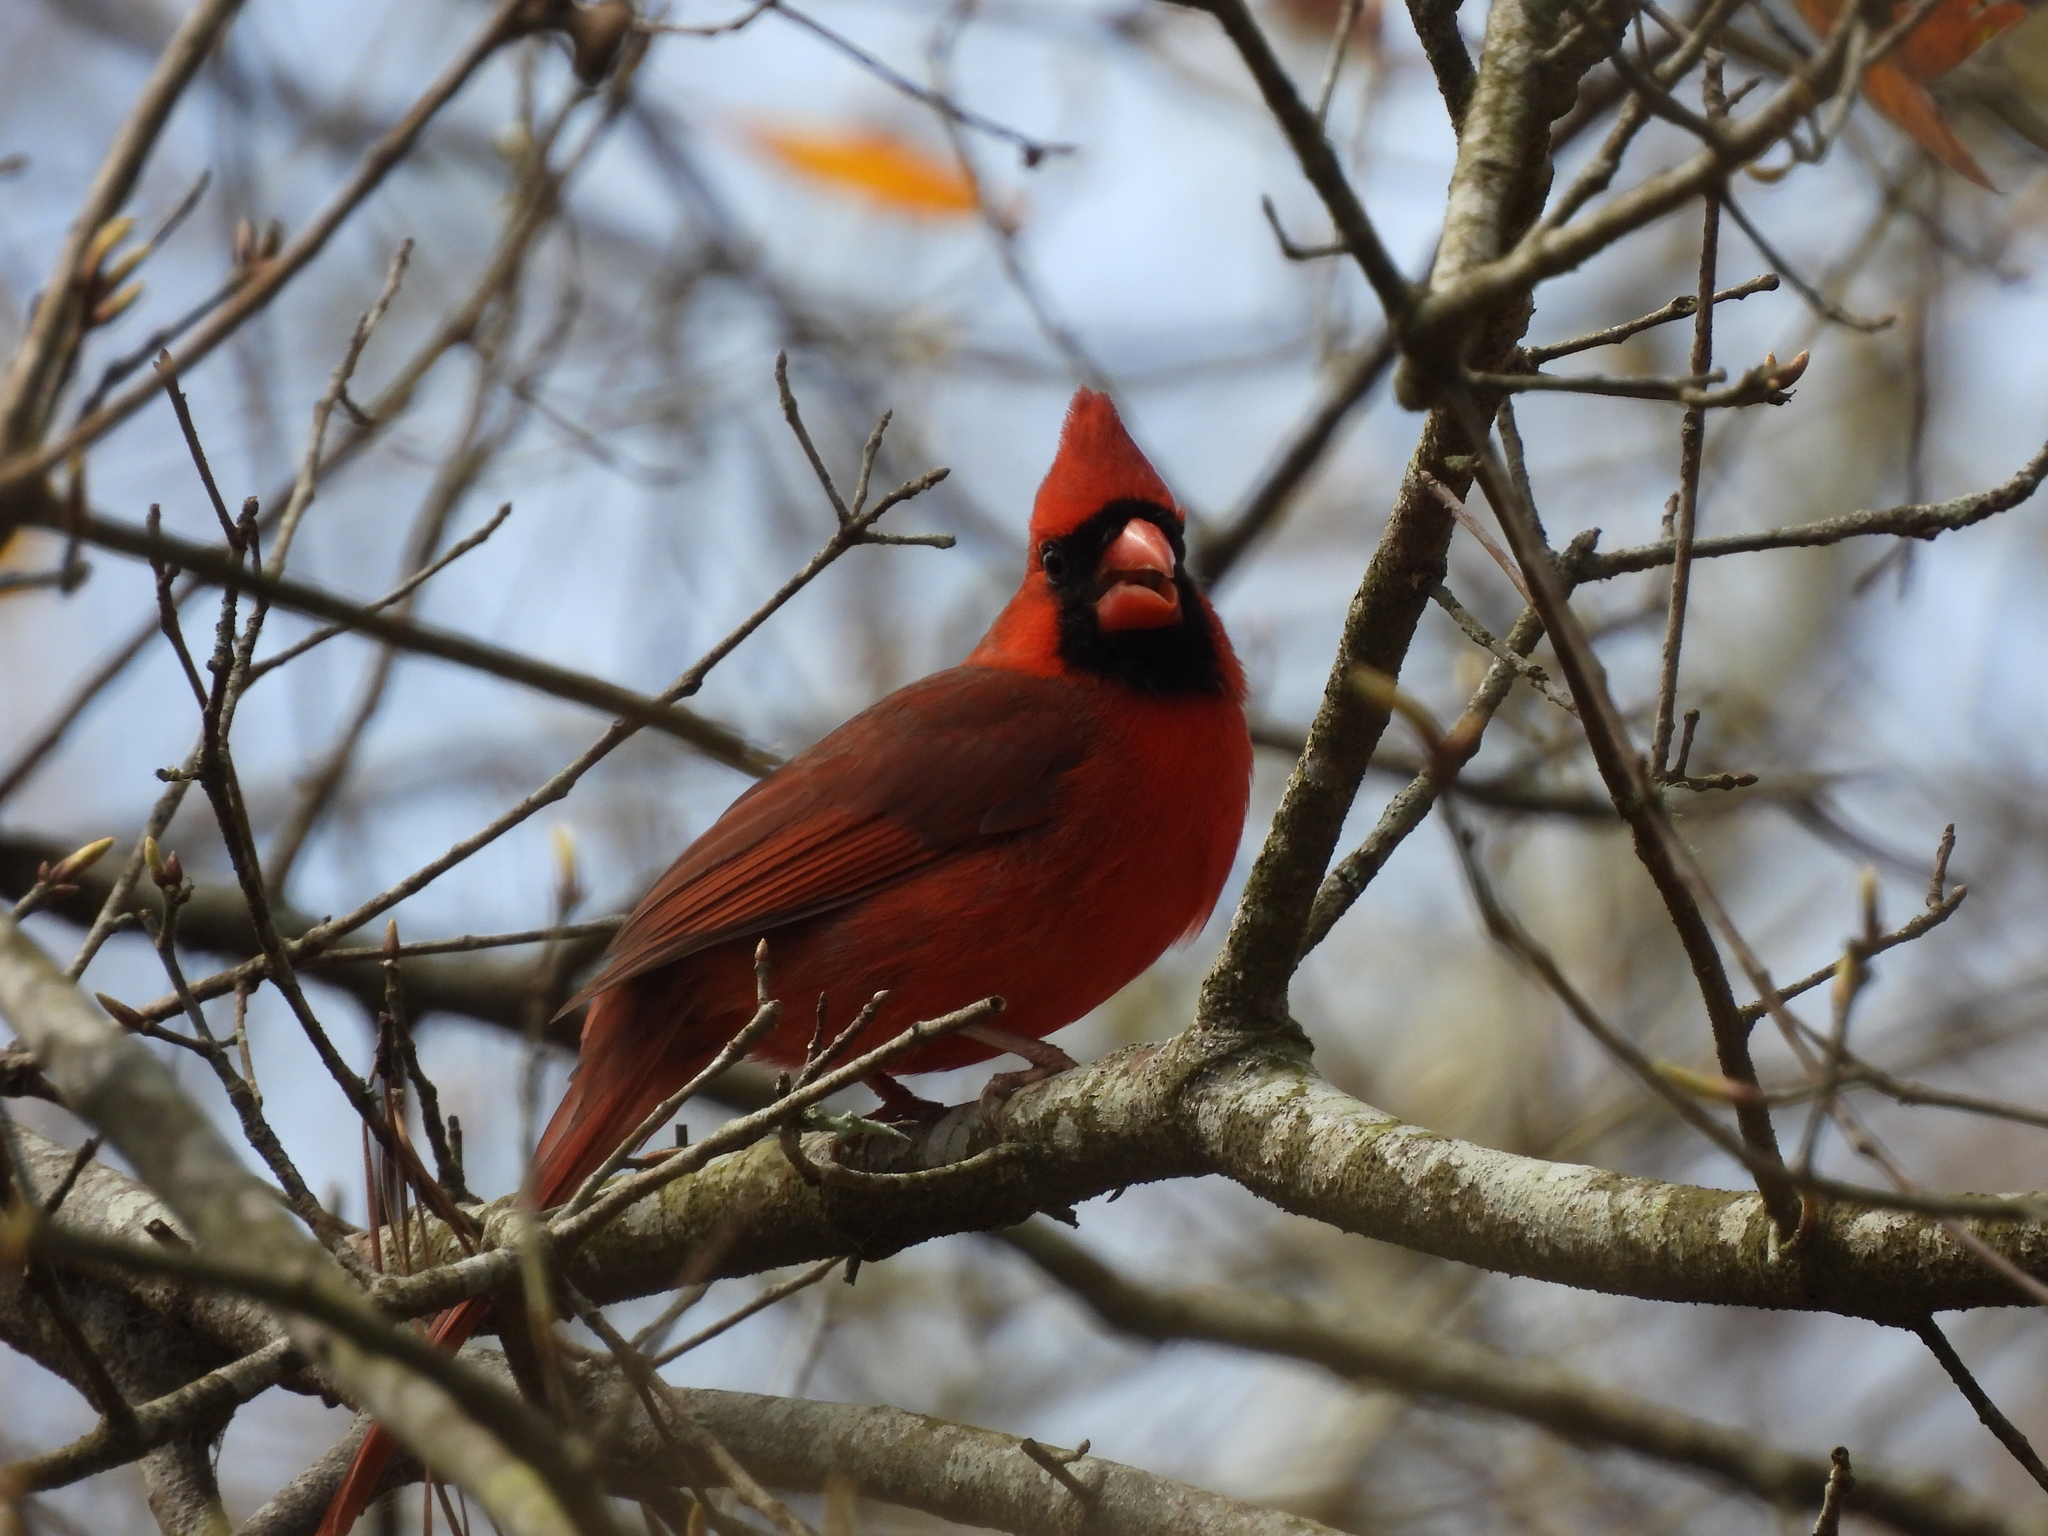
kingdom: Animalia
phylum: Chordata
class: Aves
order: Passeriformes
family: Cardinalidae
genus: Cardinalis
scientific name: Cardinalis cardinalis
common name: Northern cardinal
